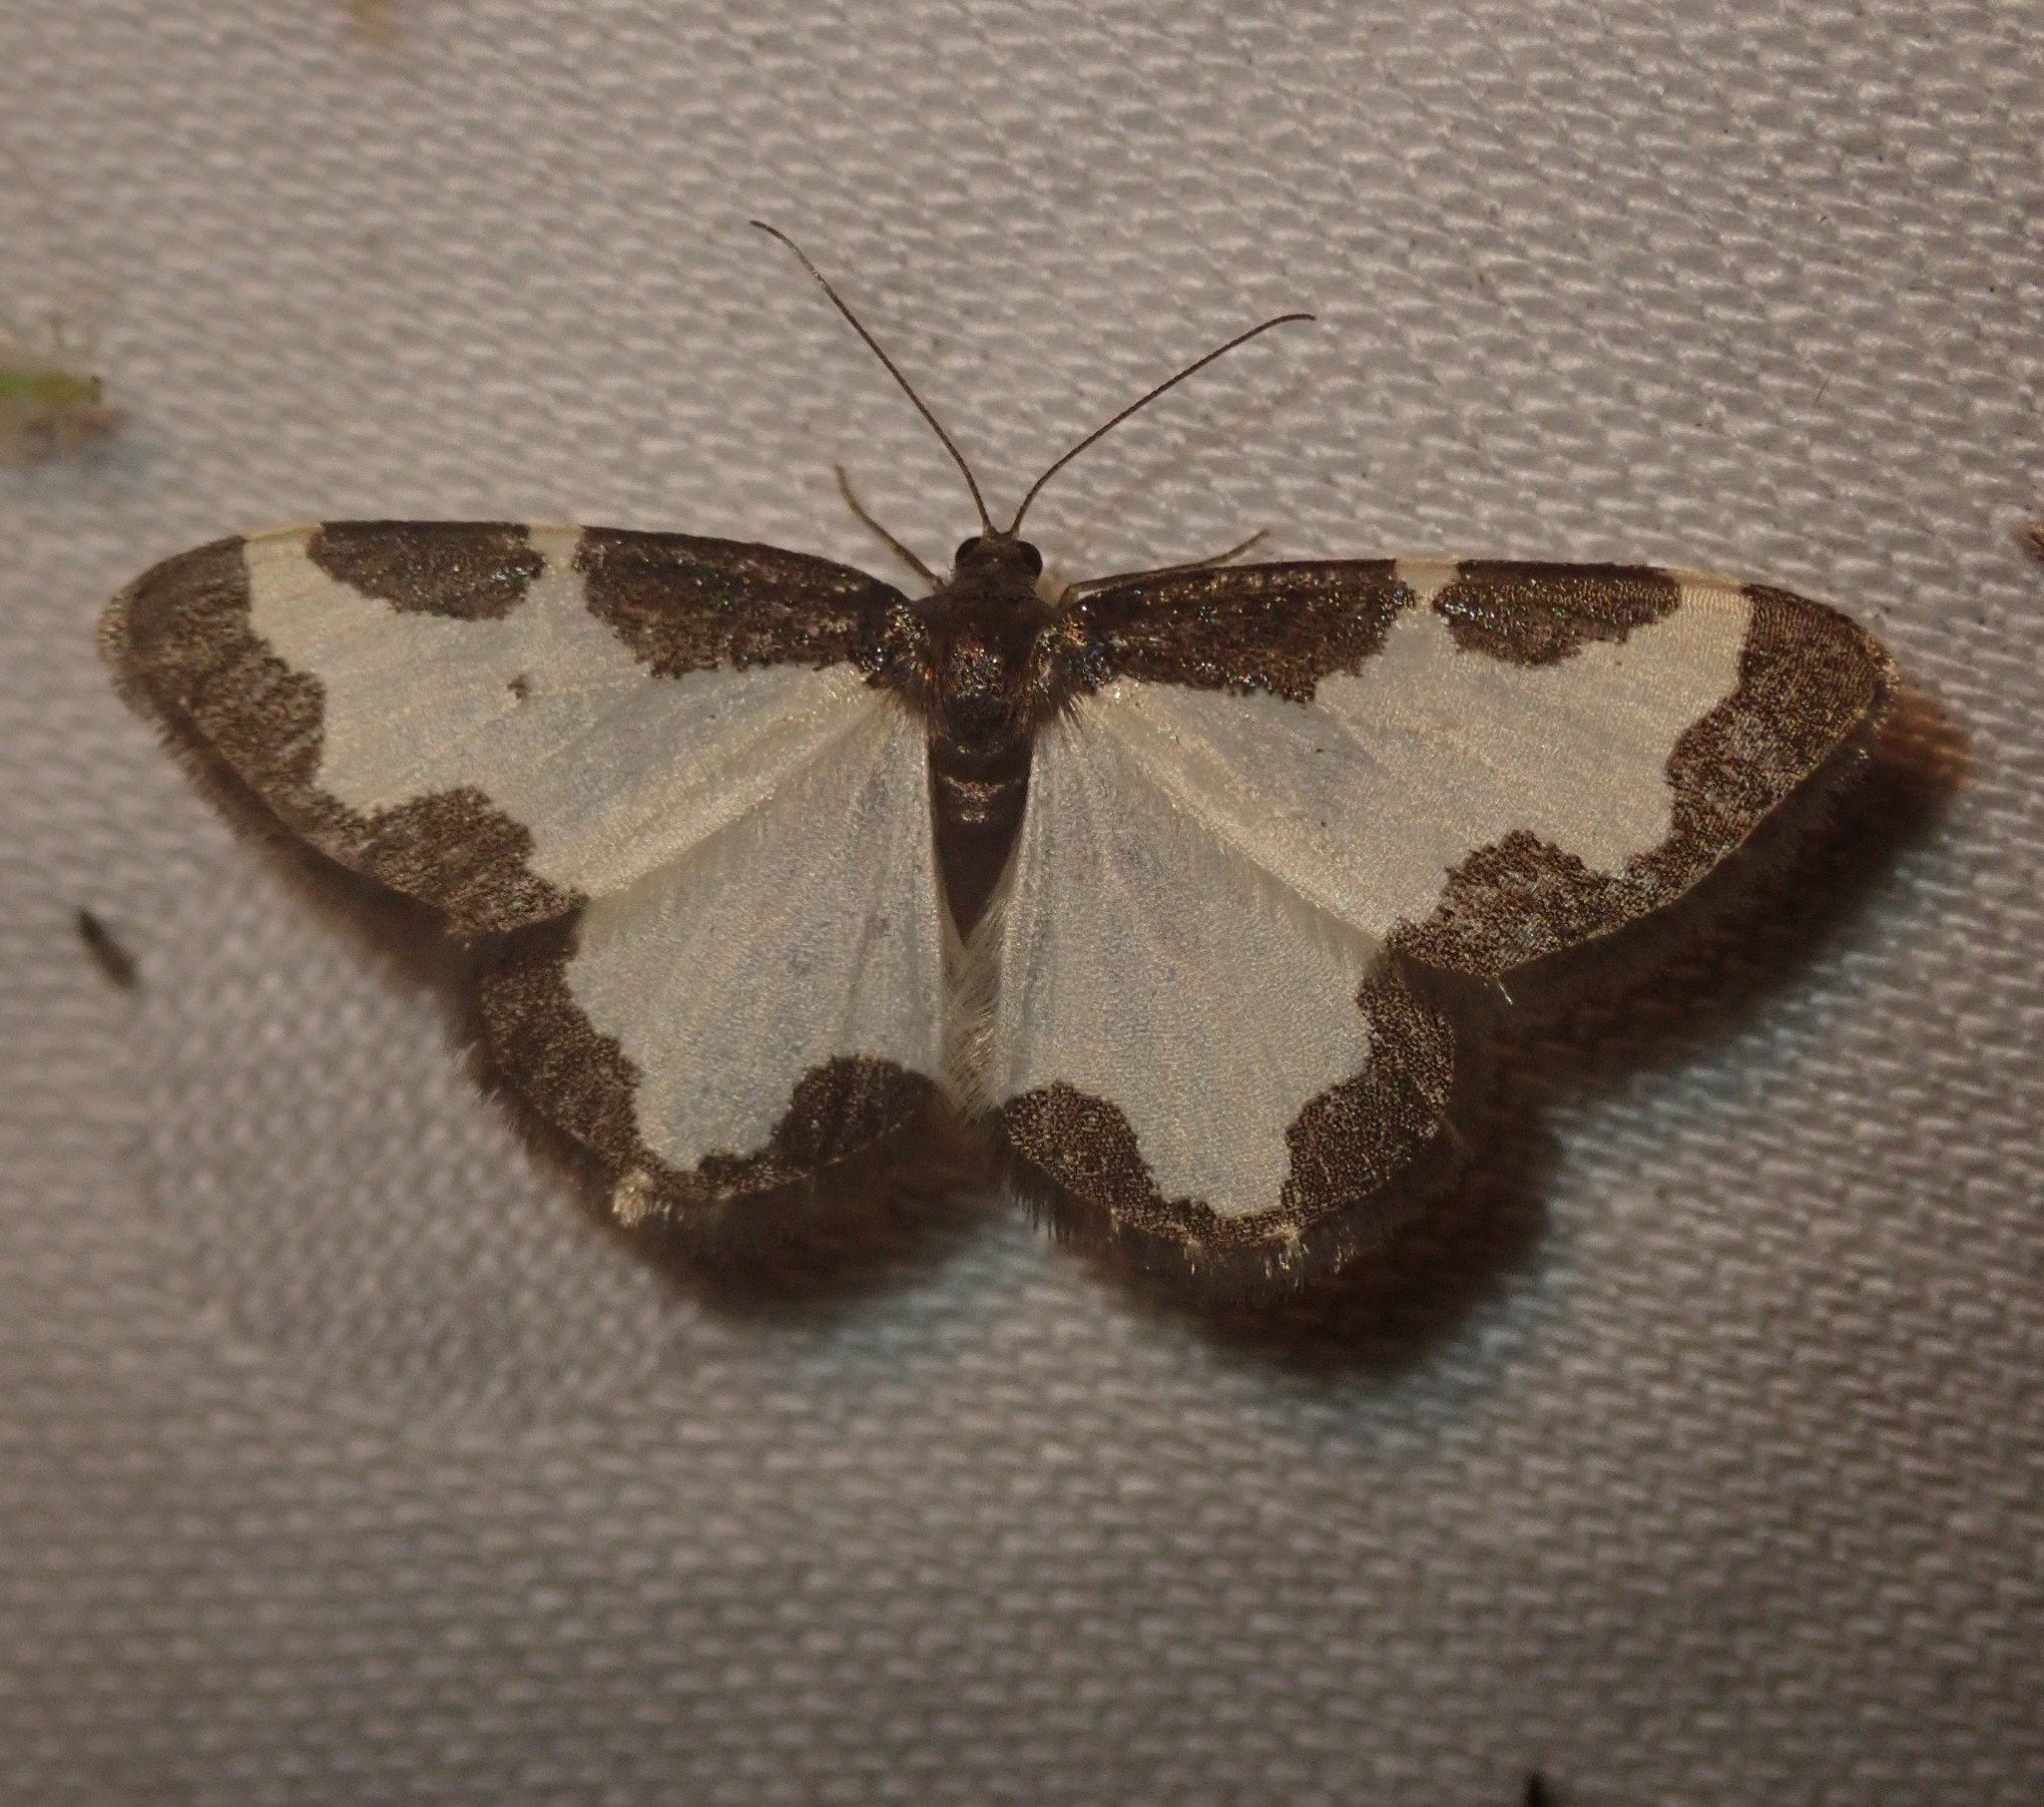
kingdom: Animalia
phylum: Arthropoda
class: Insecta
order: Lepidoptera
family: Geometridae
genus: Lomaspilis
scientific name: Lomaspilis marginata
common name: Clouded border
